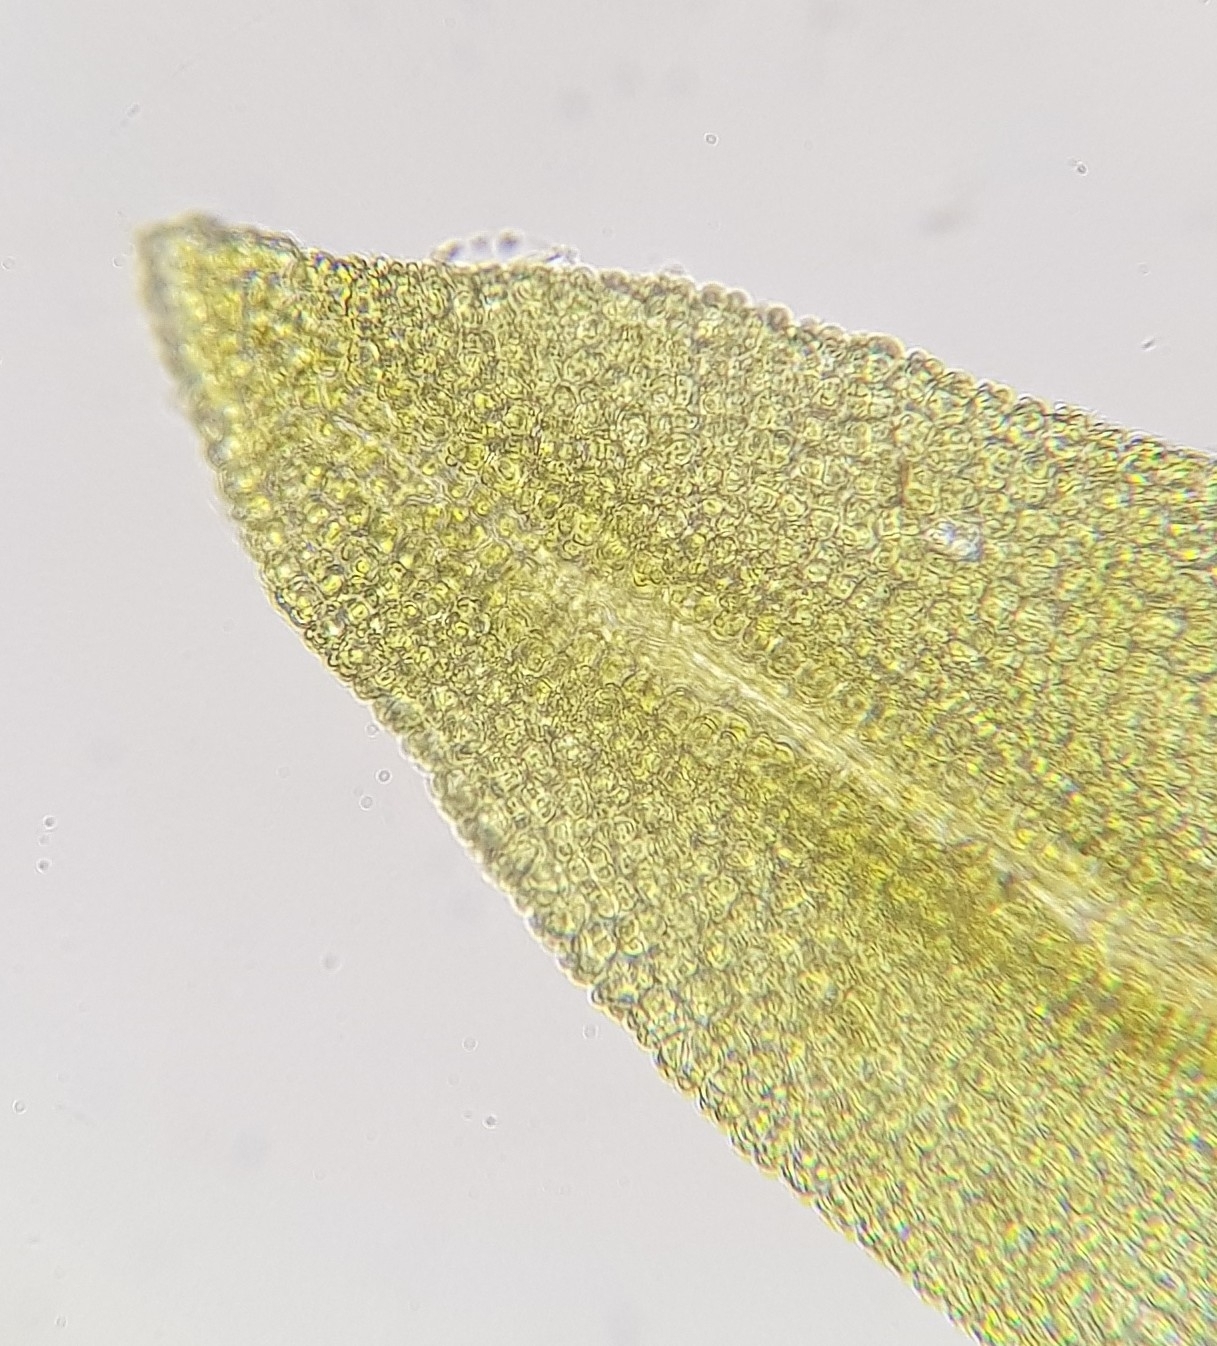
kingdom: Plantae
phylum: Bryophyta
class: Bryopsida
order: Pottiales
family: Pottiaceae
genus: Streblotrichum
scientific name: Streblotrichum convolutum
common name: Lesser bird's-claw beard-moss
